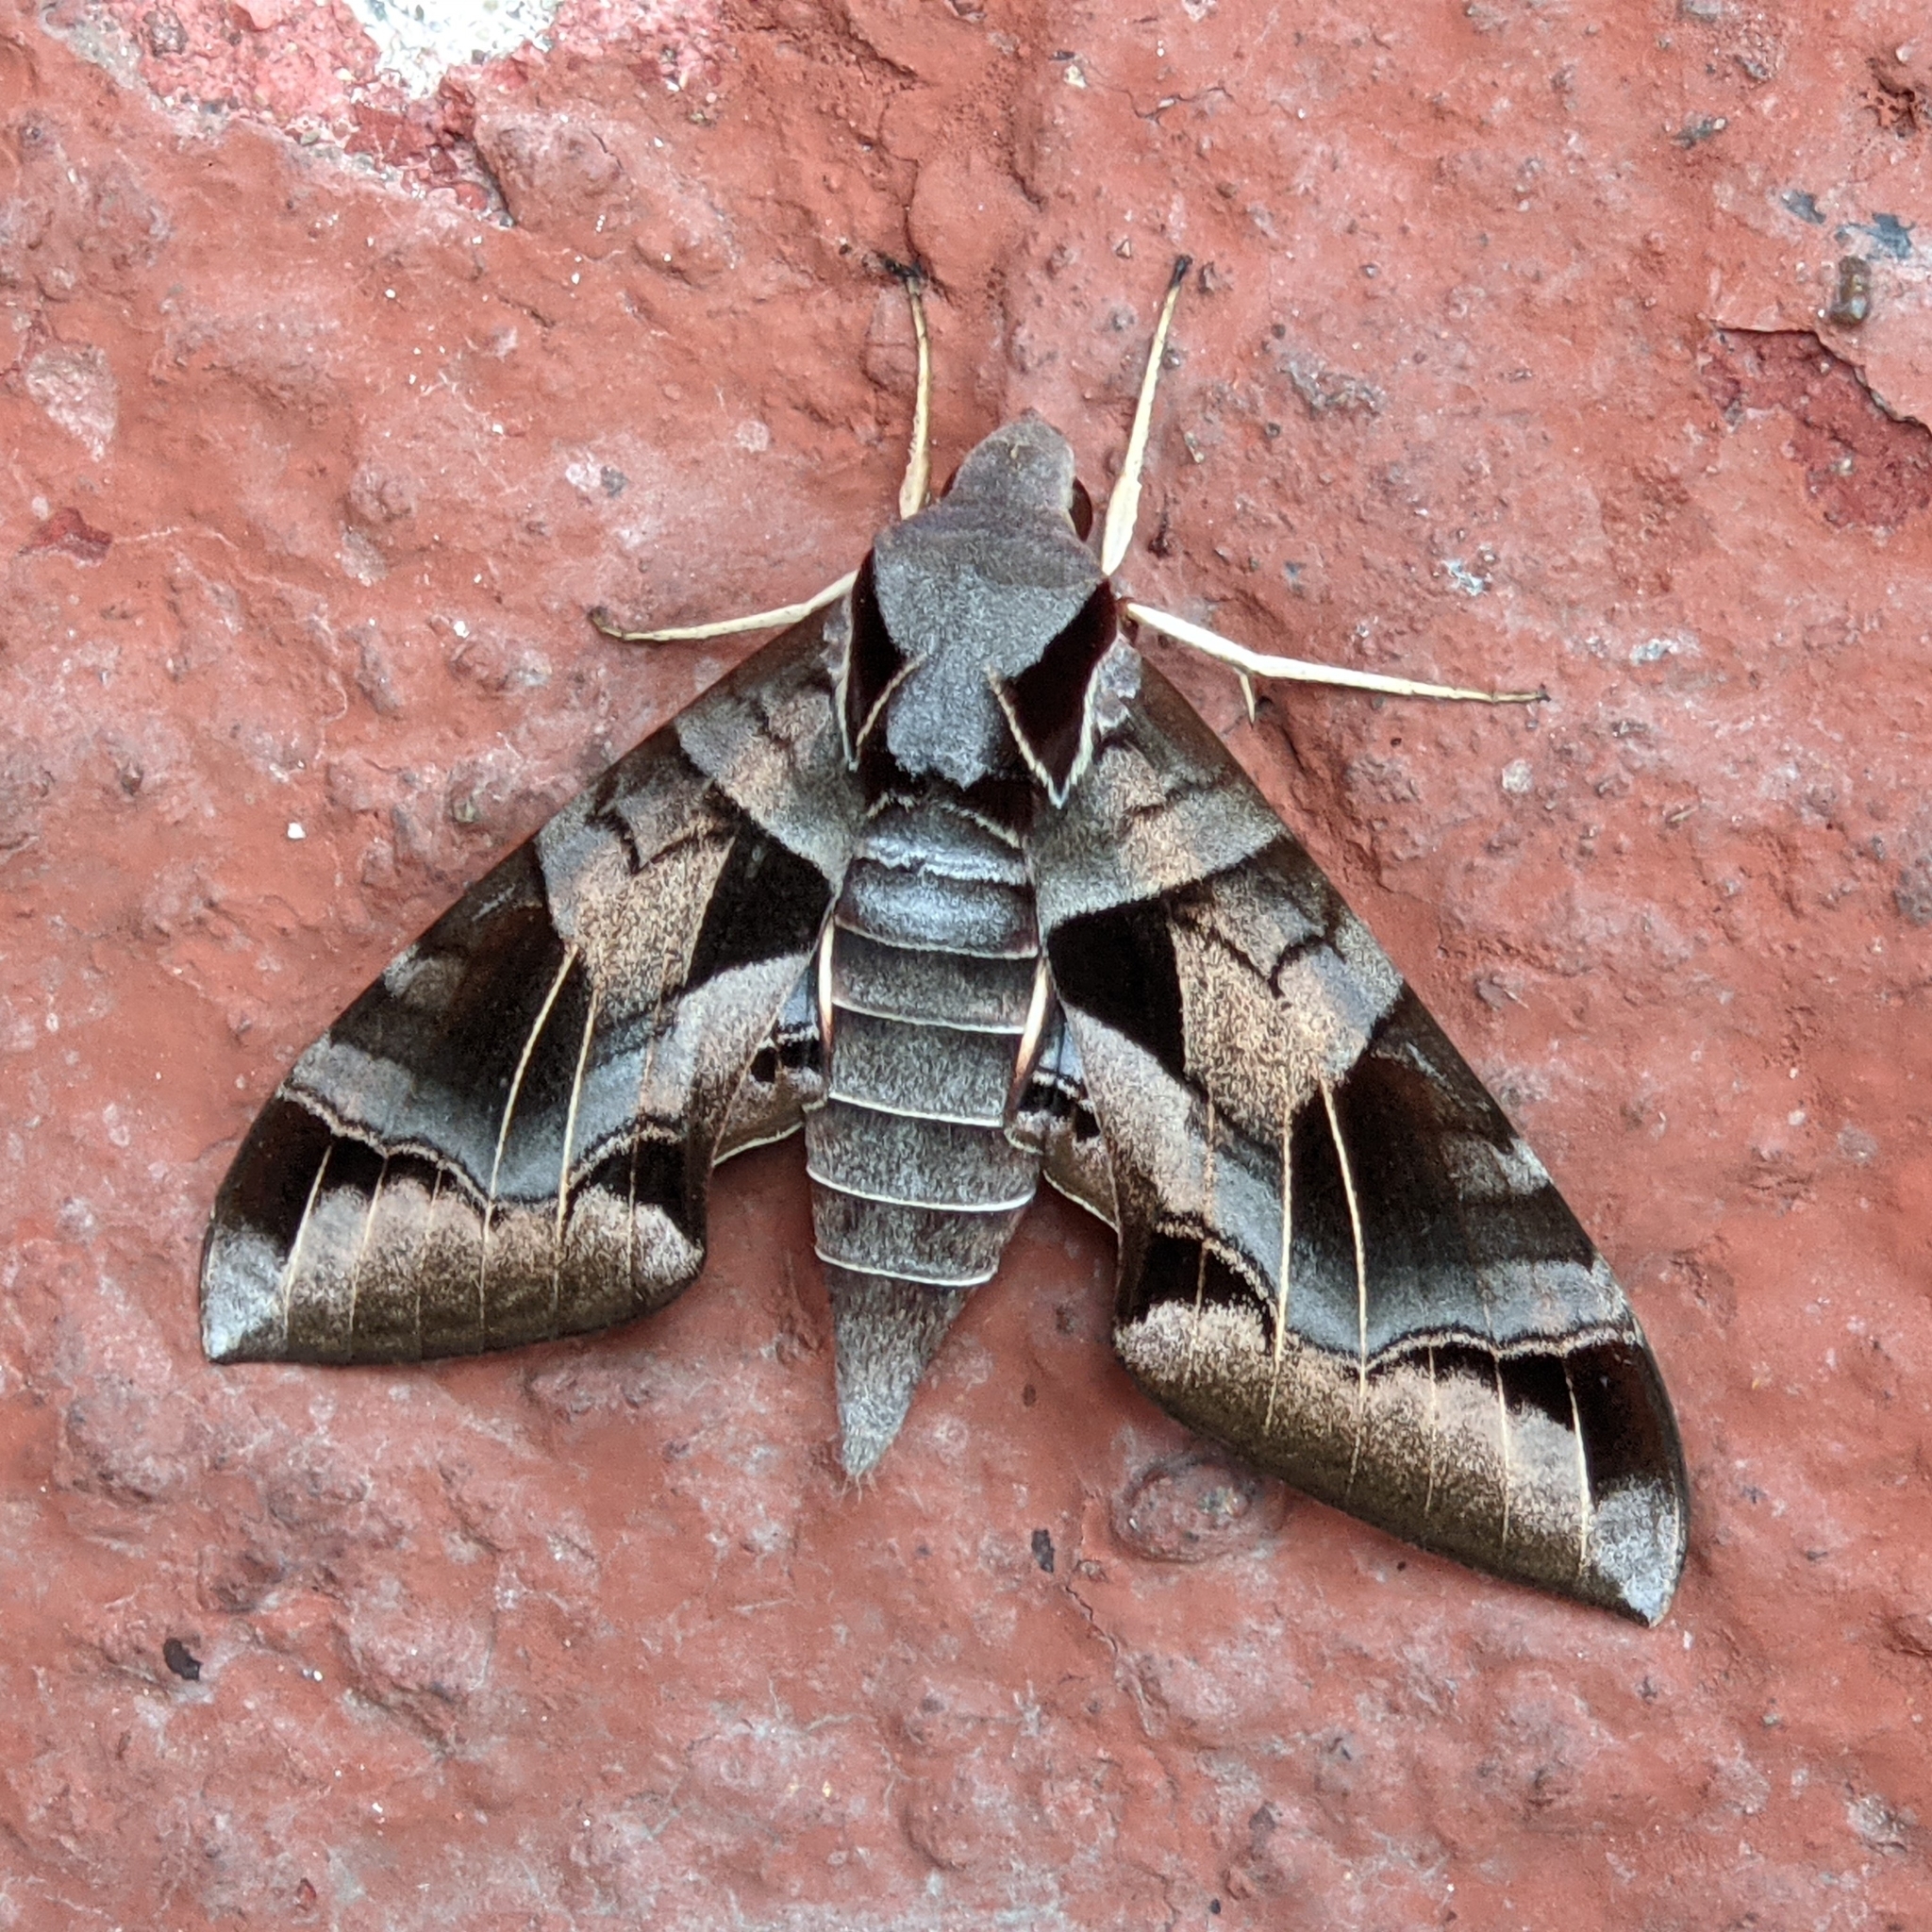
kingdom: Animalia
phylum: Arthropoda
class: Insecta
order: Lepidoptera
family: Sphingidae
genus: Eumorpha
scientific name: Eumorpha typhon
